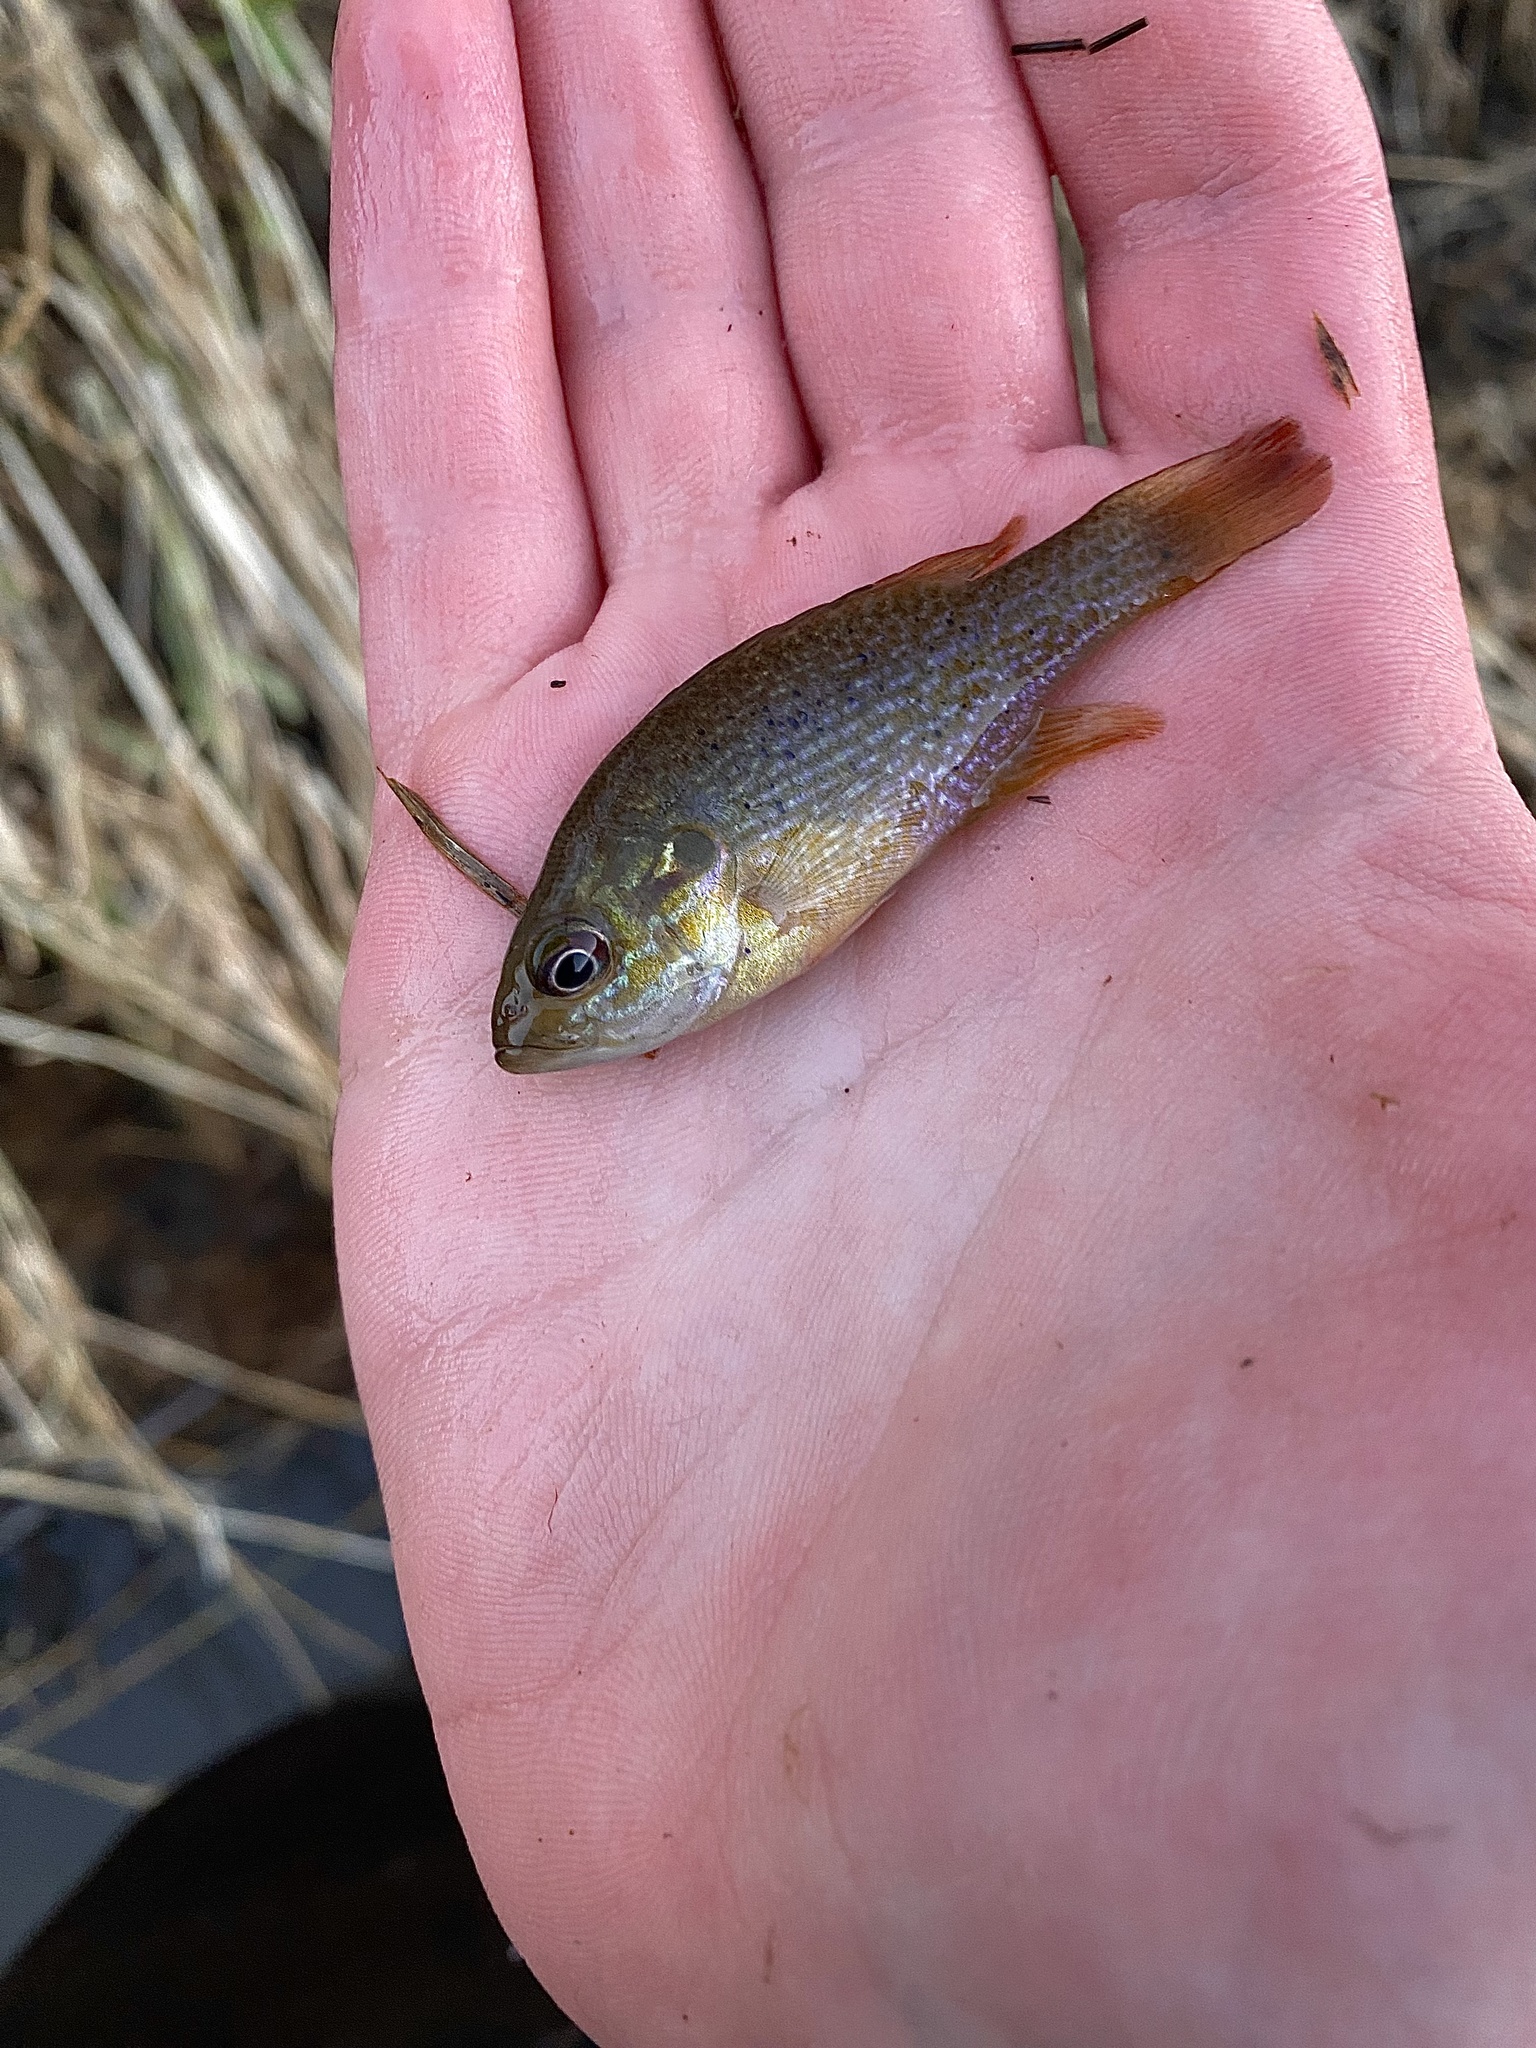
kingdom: Animalia
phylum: Chordata
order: Perciformes
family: Centrarchidae
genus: Lepomis
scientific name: Lepomis cyanellus
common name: Green sunfish
